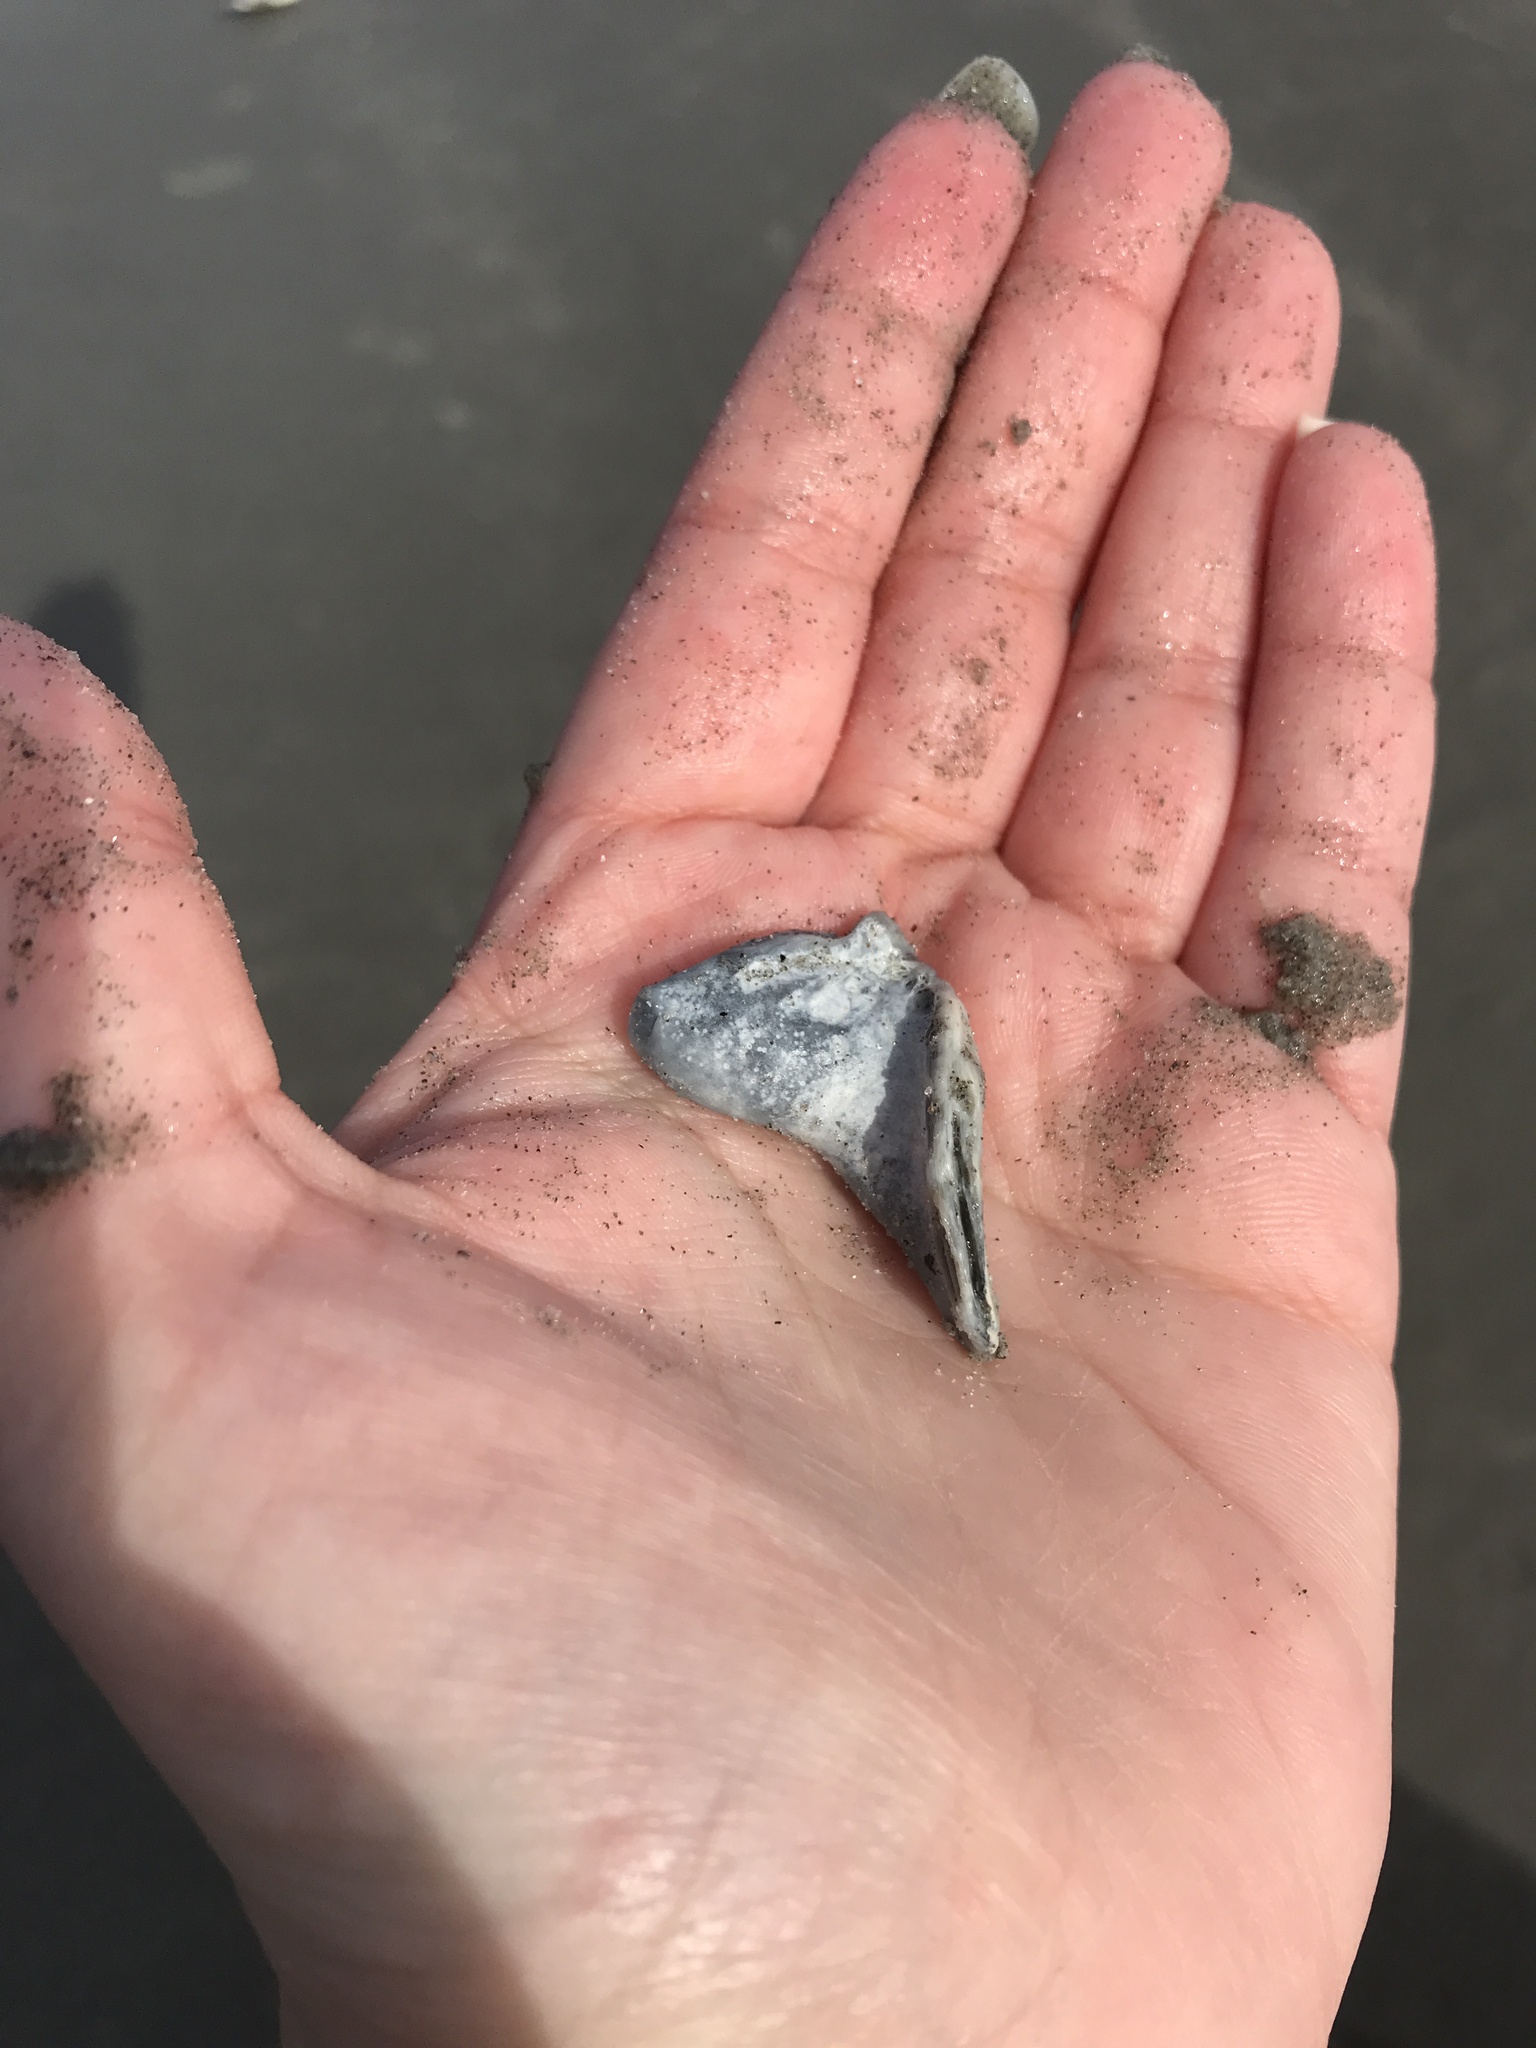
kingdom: Animalia
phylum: Mollusca
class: Bivalvia
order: Venerida
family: Mactridae
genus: Spisula
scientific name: Spisula solidissima
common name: Atlantic surf clam
